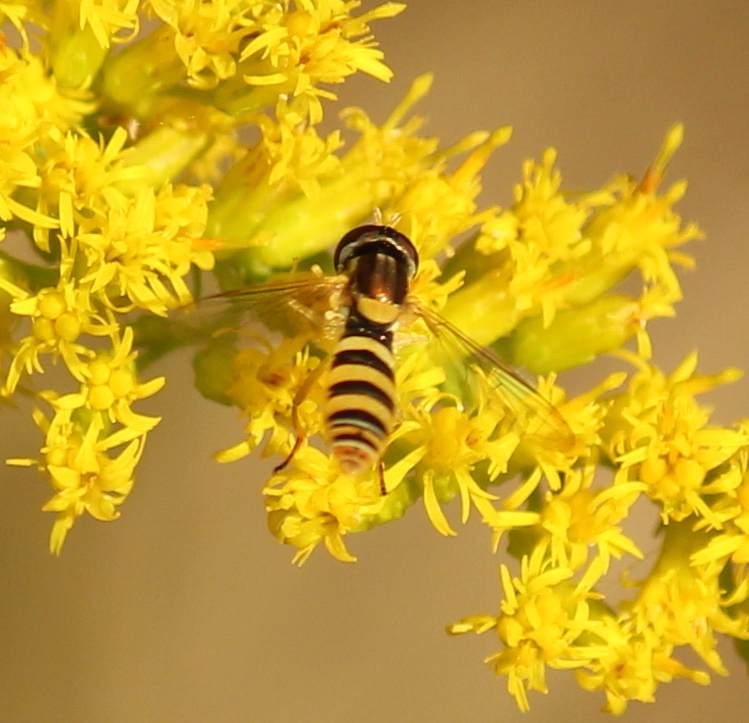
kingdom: Animalia
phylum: Arthropoda
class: Insecta
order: Diptera
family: Syrphidae
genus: Sphaerophoria
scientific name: Sphaerophoria contigua
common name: Tufted globetail
